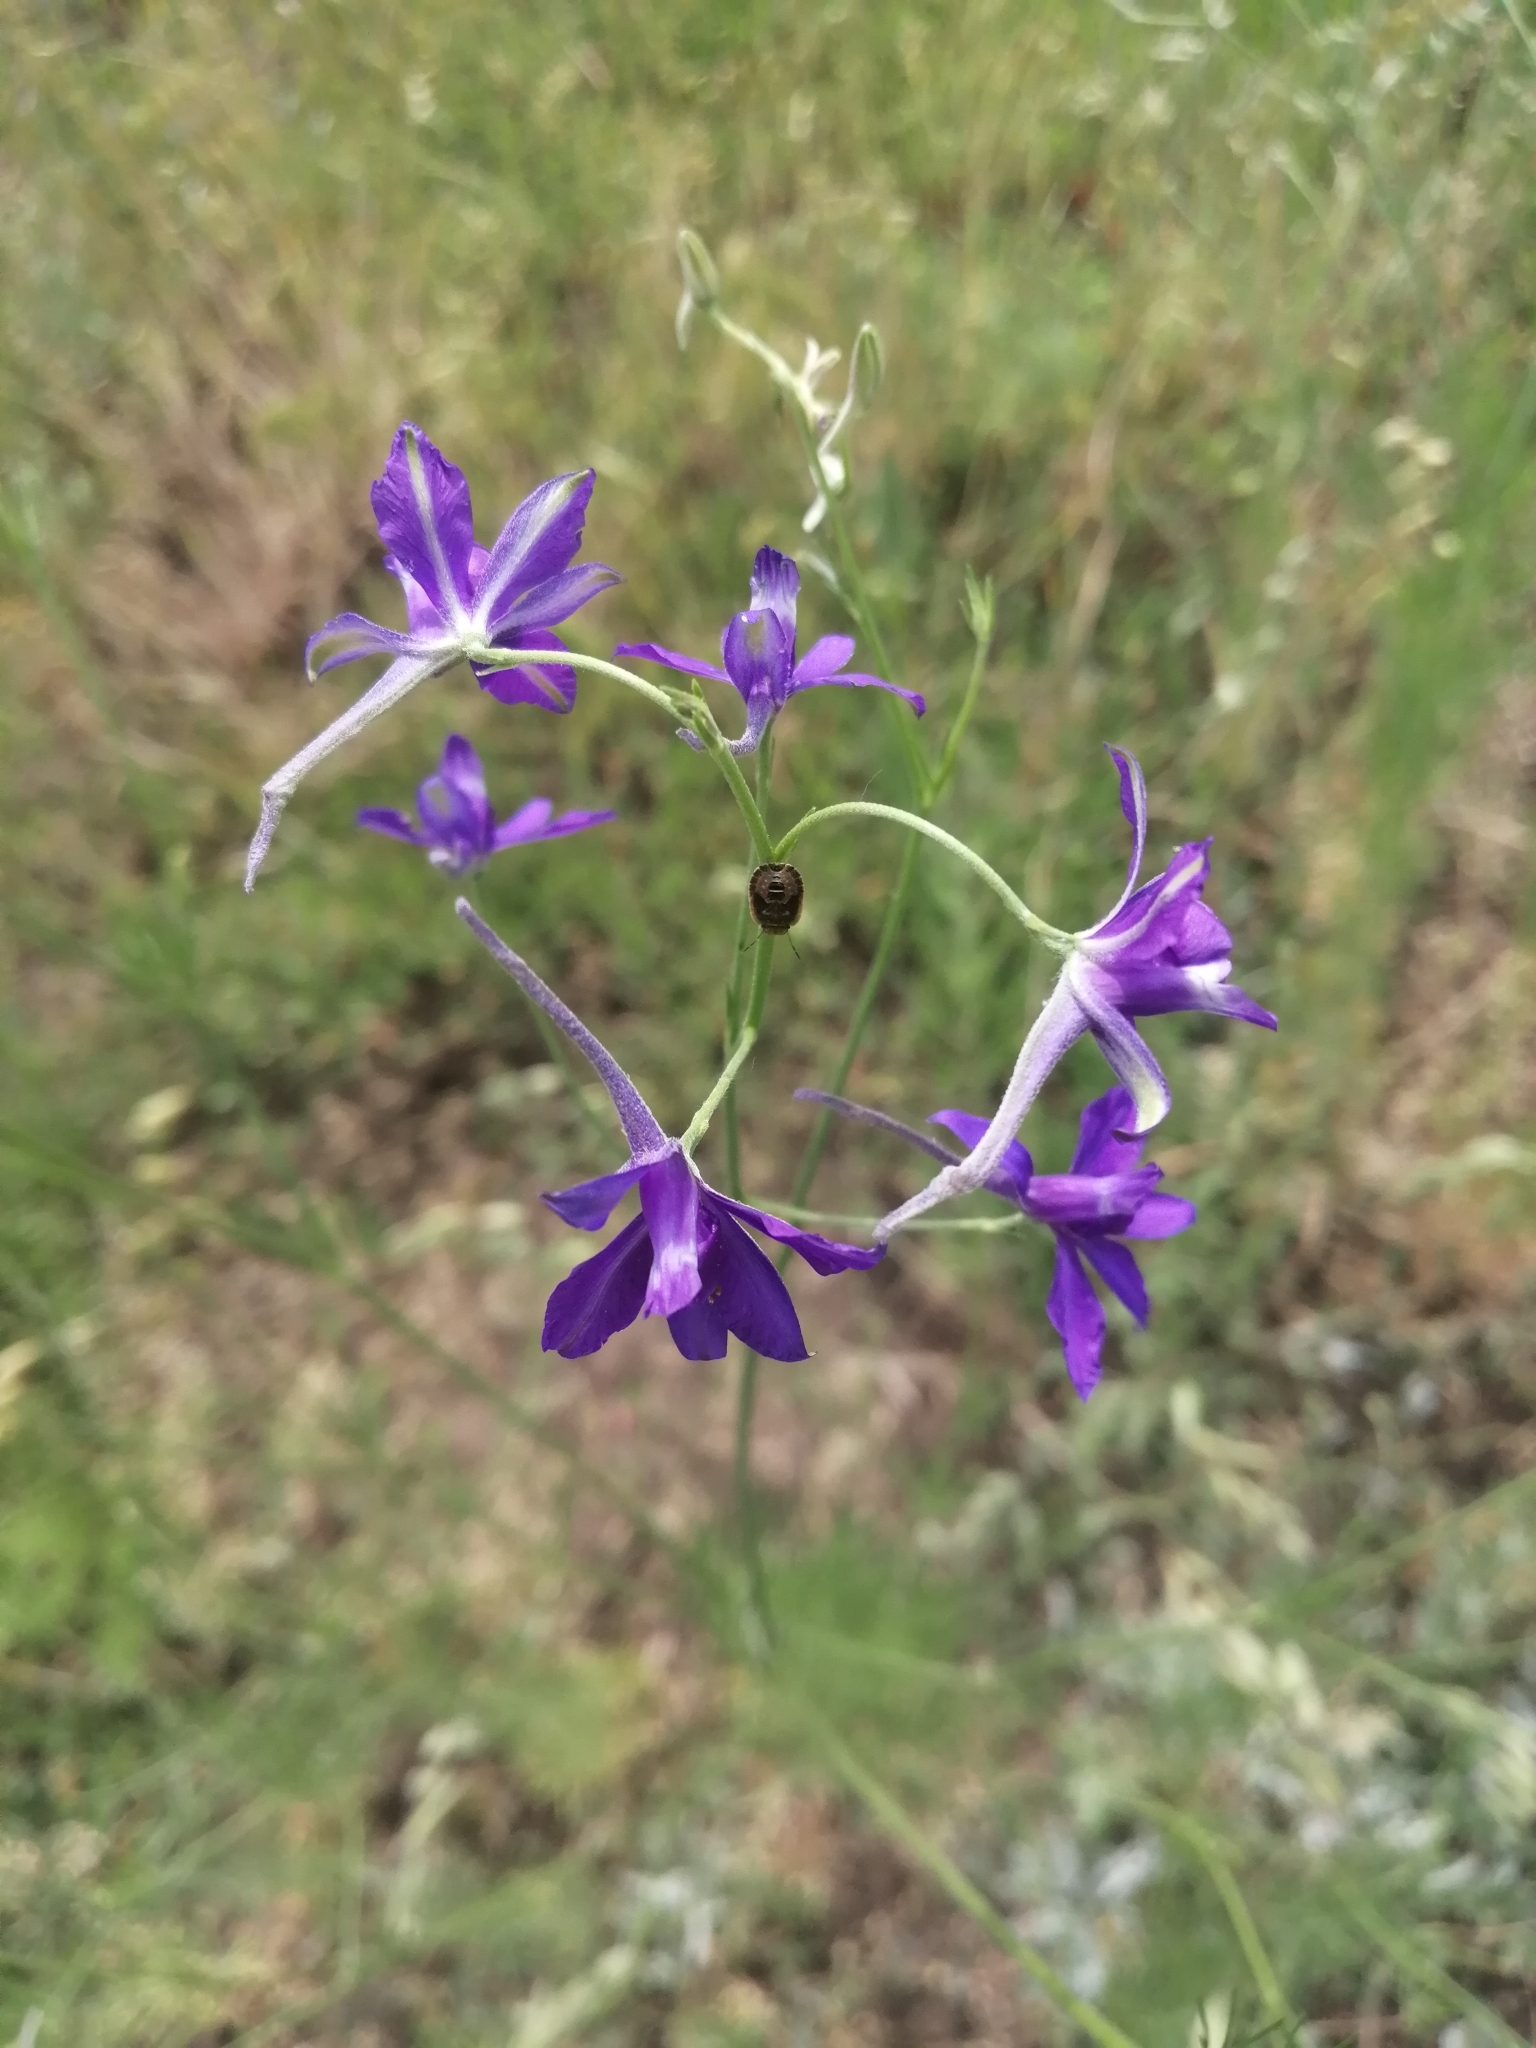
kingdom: Plantae
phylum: Tracheophyta
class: Magnoliopsida
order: Ranunculales
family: Ranunculaceae
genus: Delphinium
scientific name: Delphinium consolida
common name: Branching larkspur
